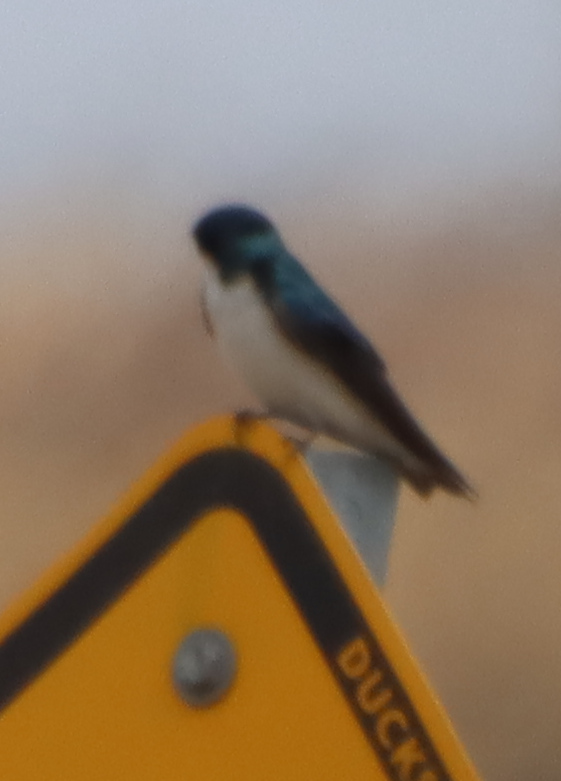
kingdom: Animalia
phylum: Chordata
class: Aves
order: Passeriformes
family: Hirundinidae
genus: Tachycineta
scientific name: Tachycineta bicolor
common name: Tree swallow
